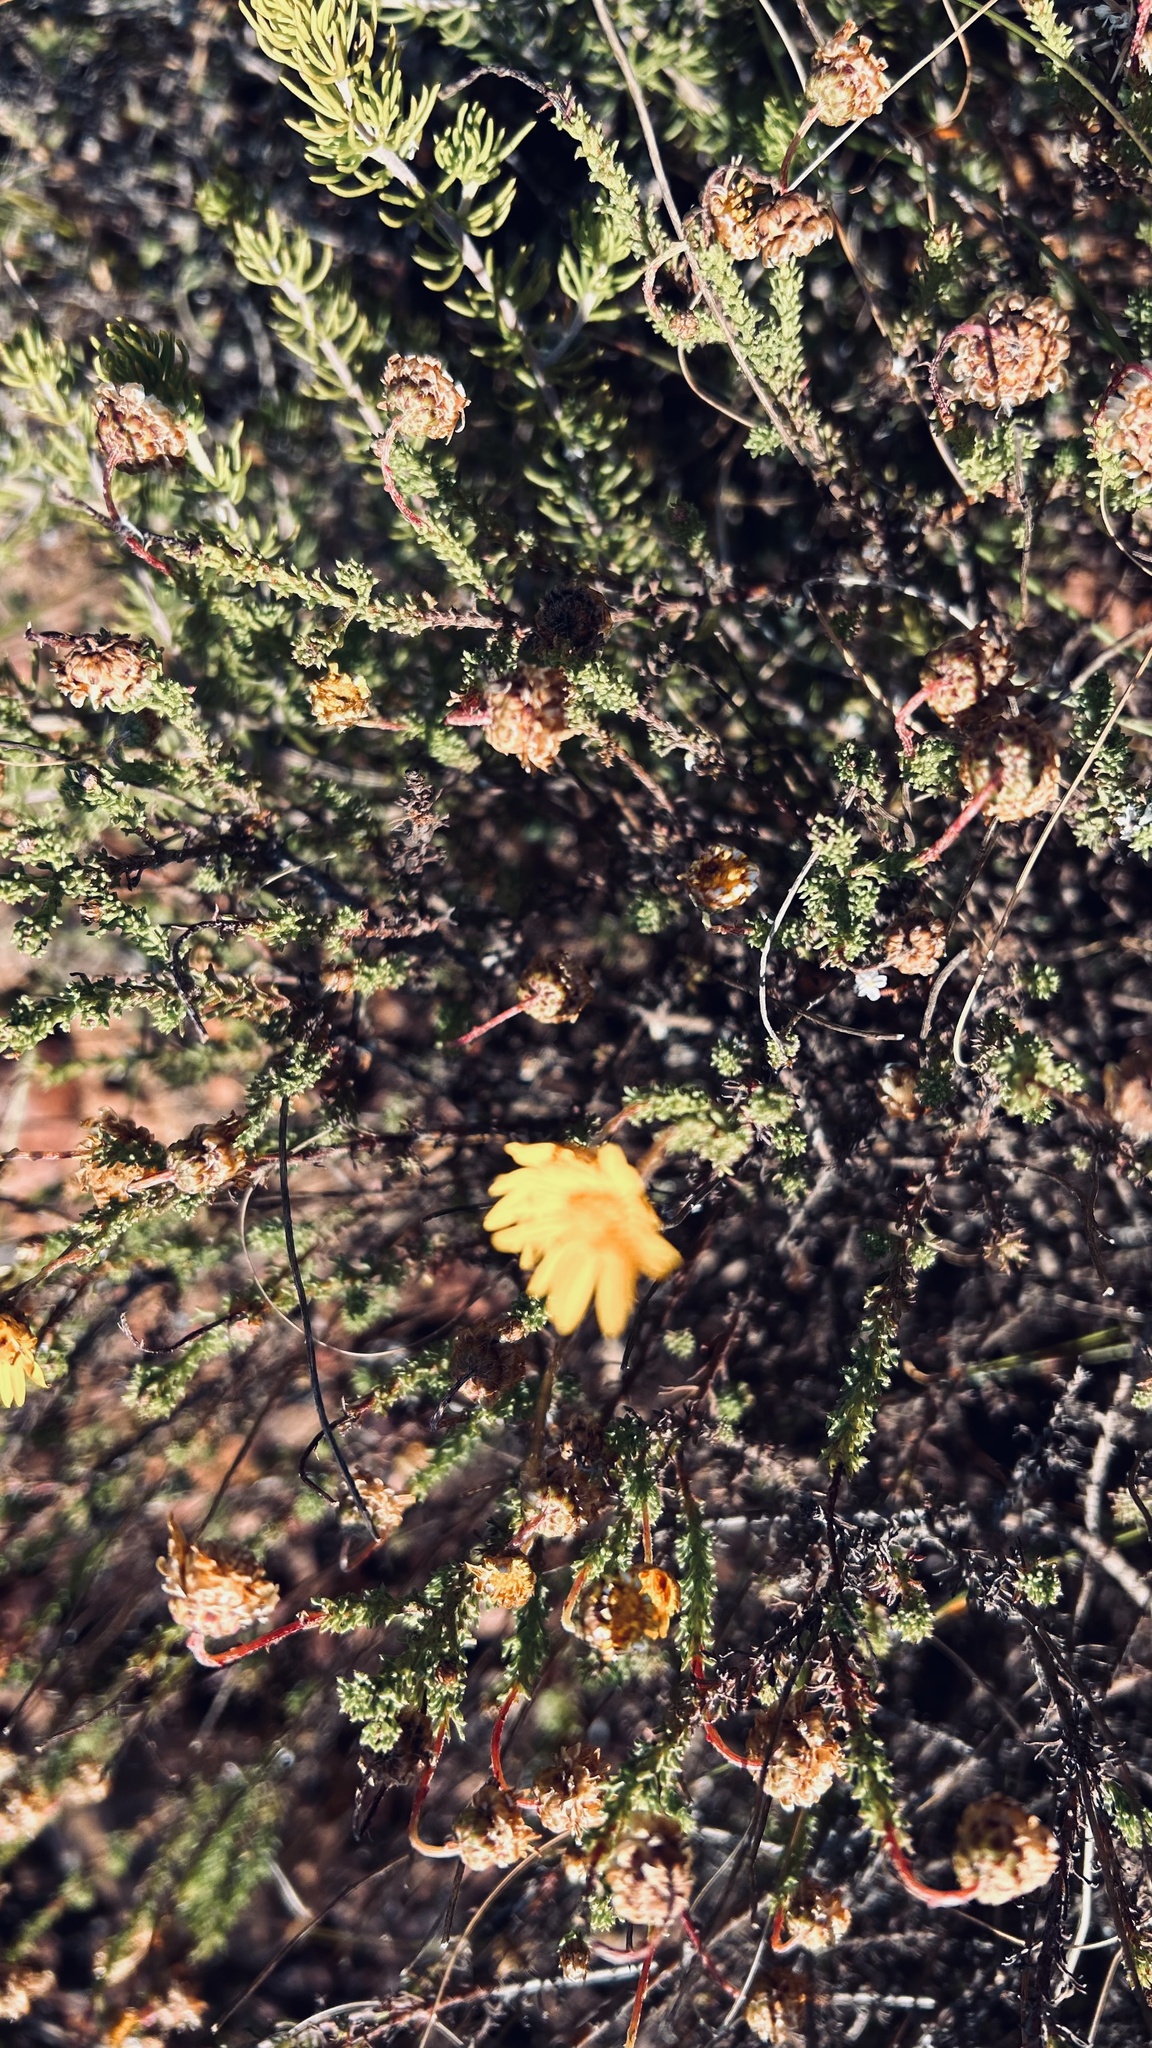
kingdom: Plantae
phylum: Tracheophyta
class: Magnoliopsida
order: Asterales
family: Asteraceae
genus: Ursinia
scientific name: Ursinia discolor
